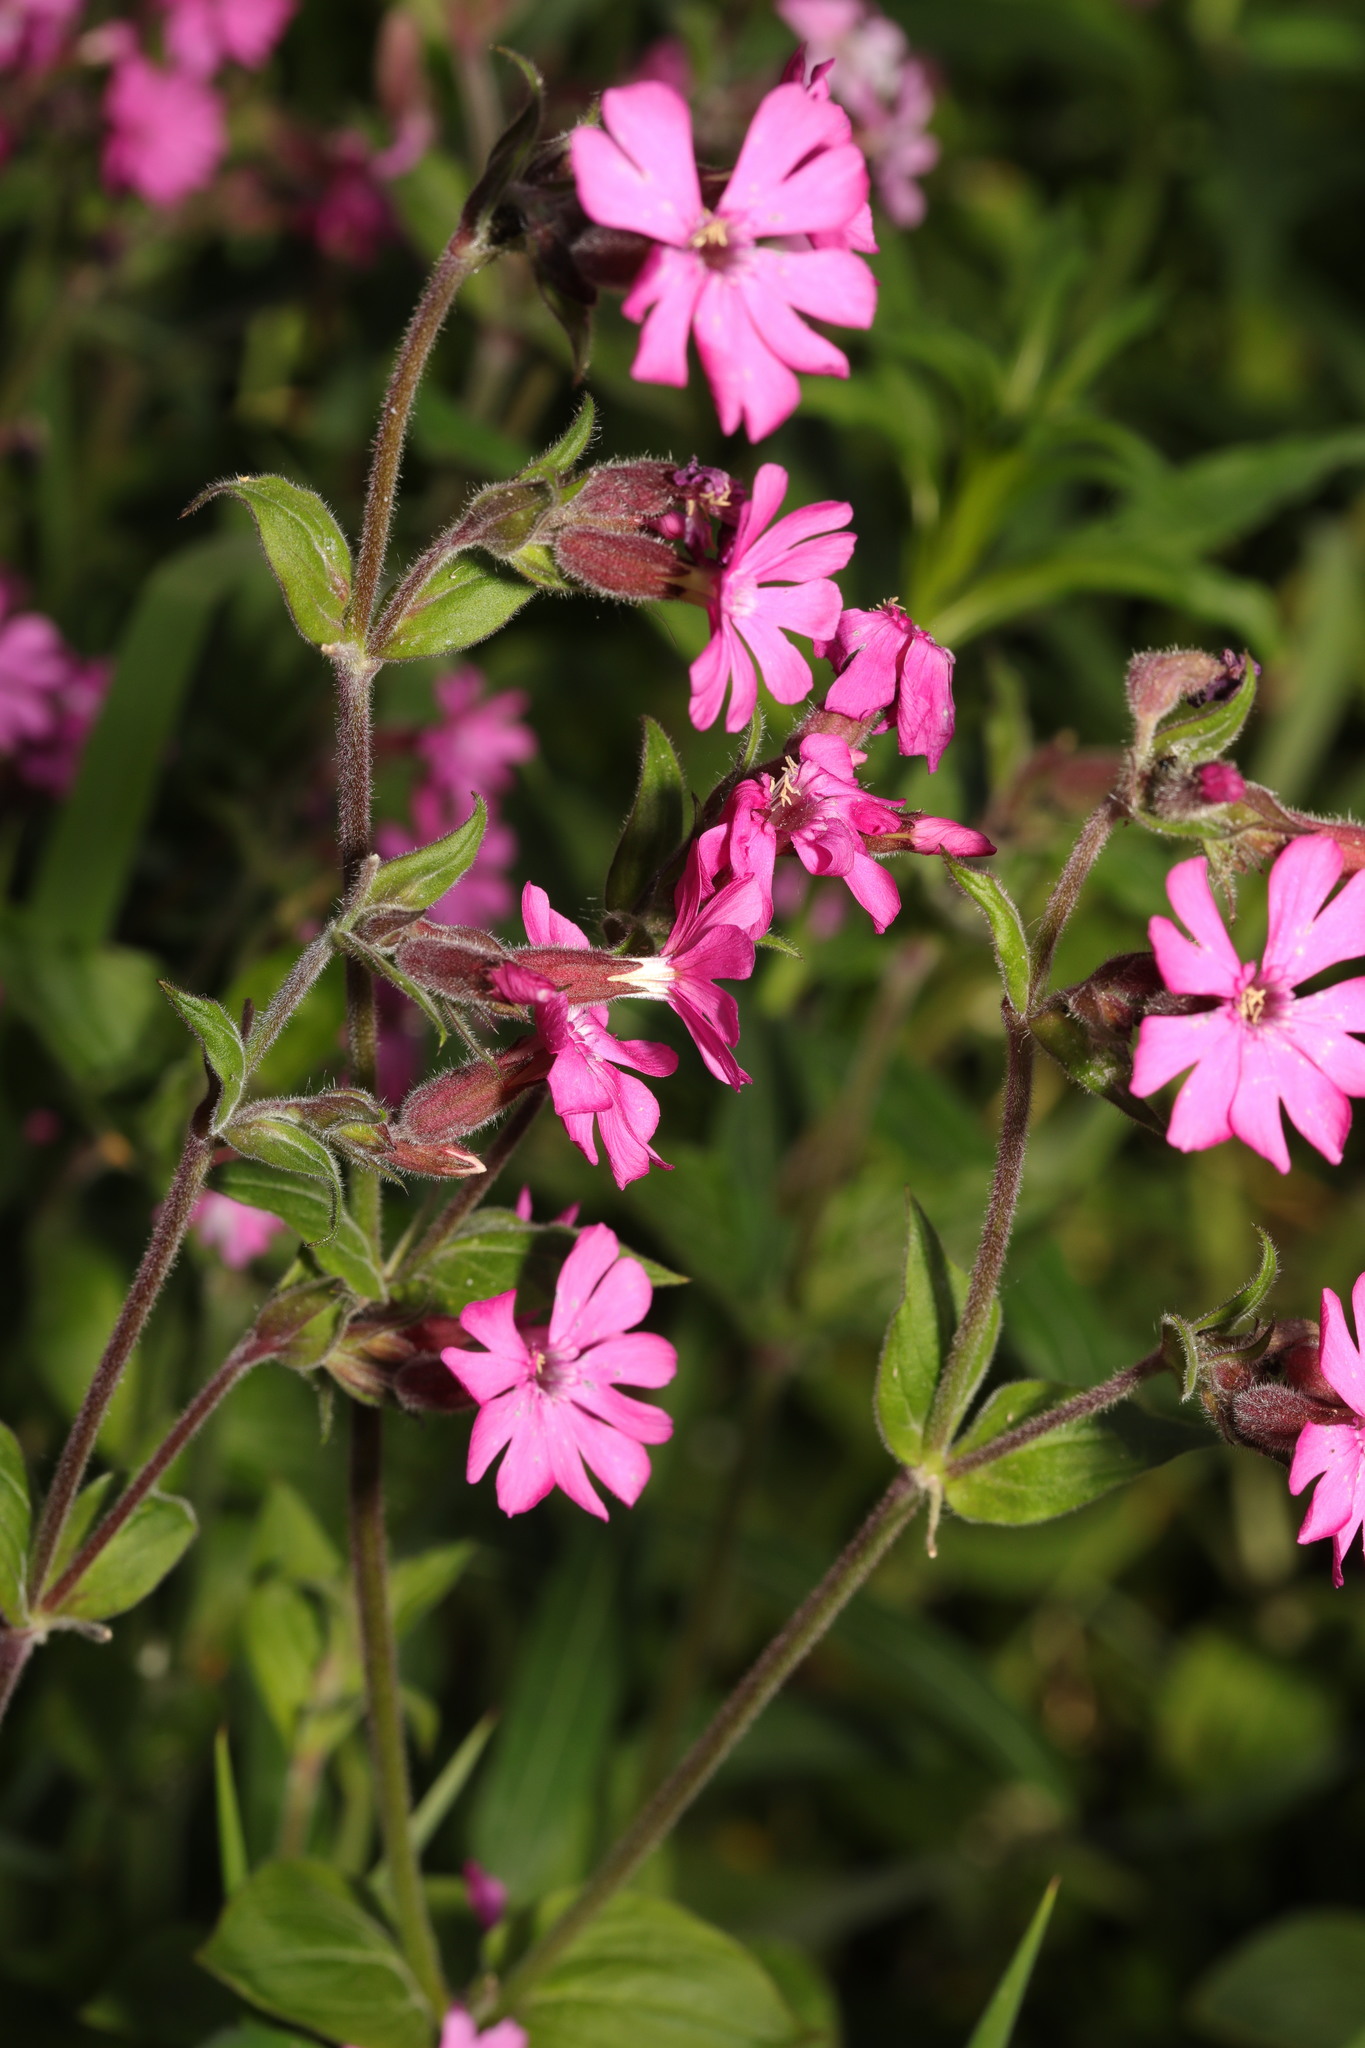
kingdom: Plantae
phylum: Tracheophyta
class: Magnoliopsida
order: Caryophyllales
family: Caryophyllaceae
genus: Silene
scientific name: Silene dioica
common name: Red campion
